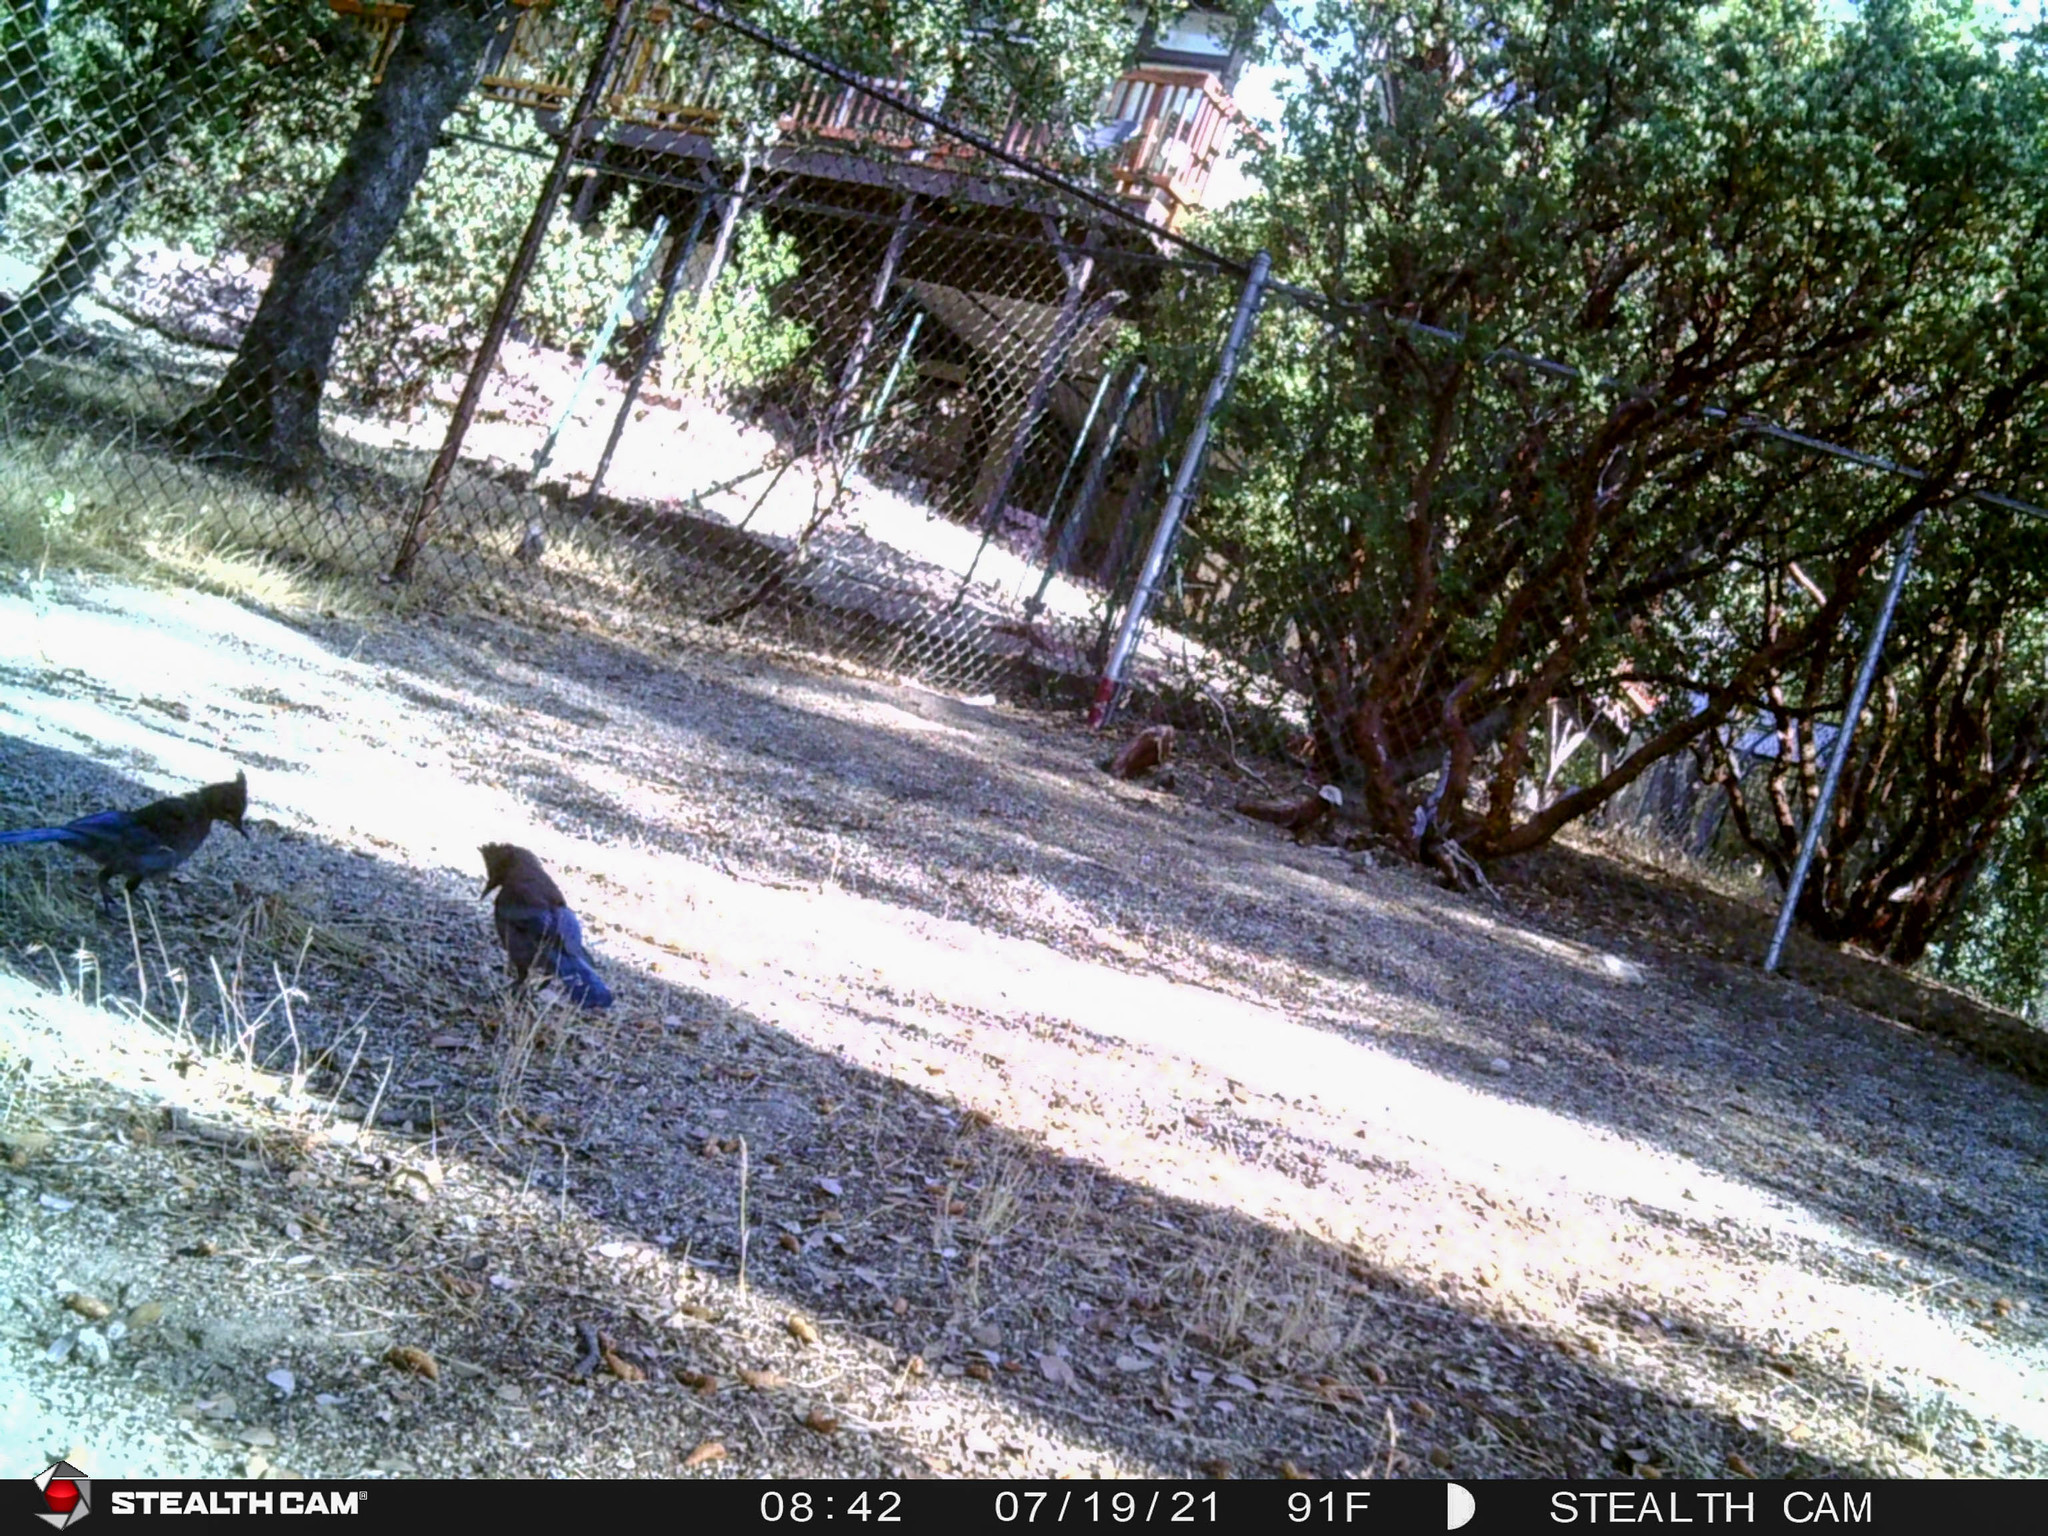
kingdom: Animalia
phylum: Chordata
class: Aves
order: Passeriformes
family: Corvidae
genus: Cyanocitta
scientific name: Cyanocitta stelleri
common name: Steller's jay
